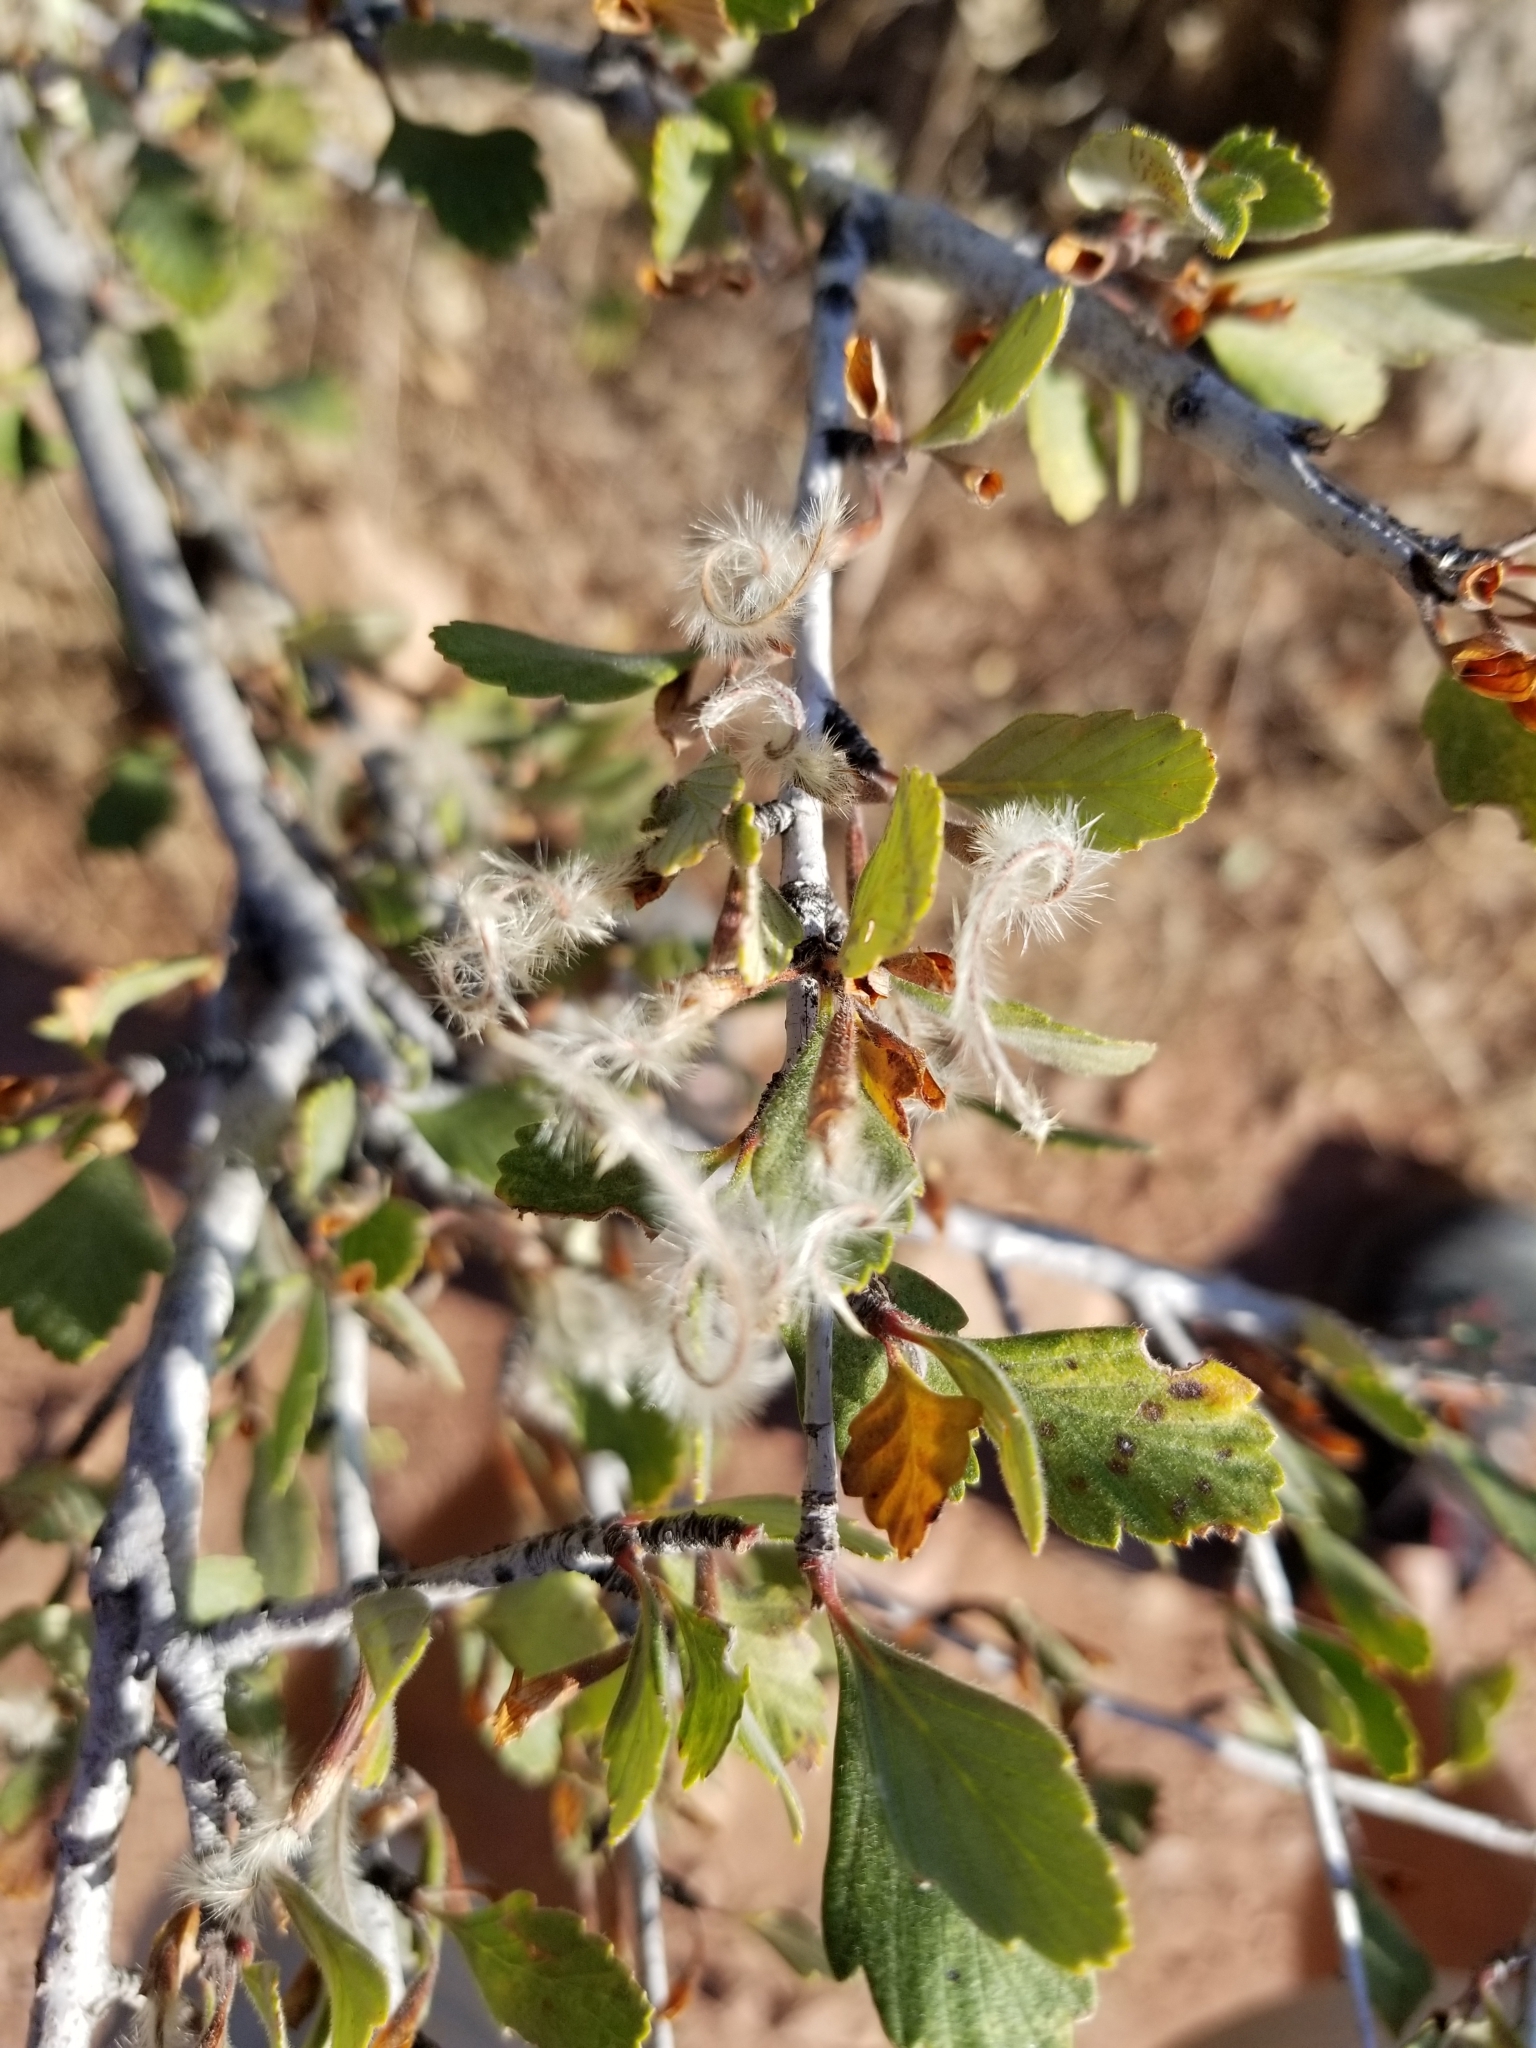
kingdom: Plantae
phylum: Tracheophyta
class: Magnoliopsida
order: Rosales
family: Rosaceae
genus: Cercocarpus
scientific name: Cercocarpus montanus
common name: Alder-leaf cercocarpus
